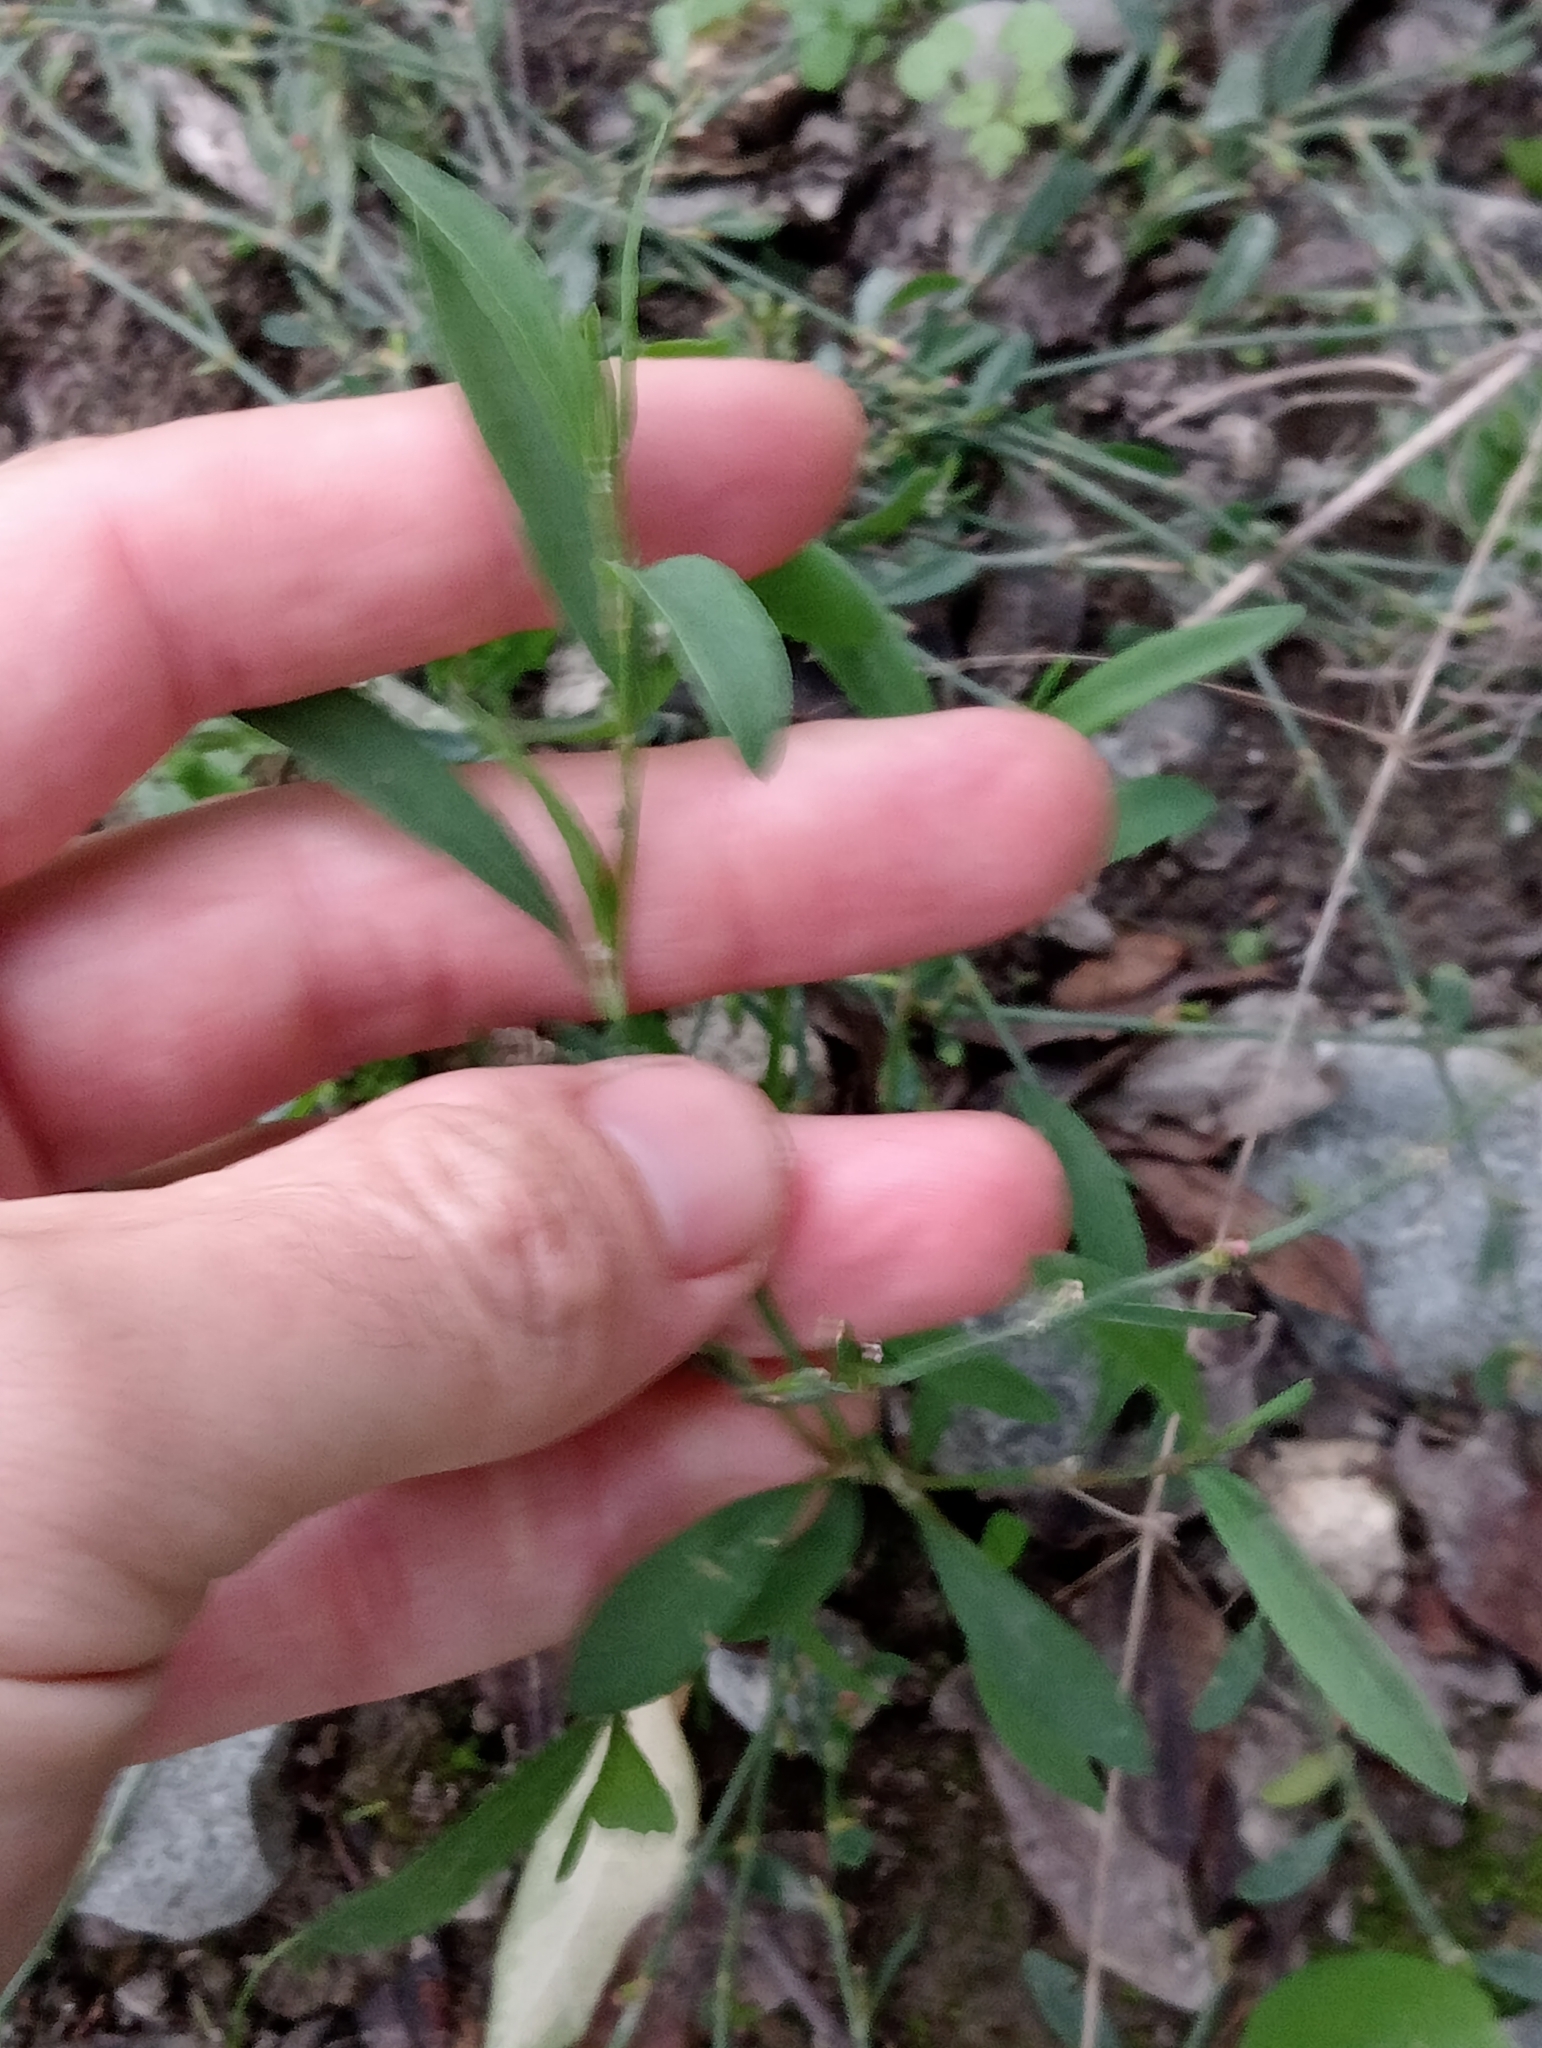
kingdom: Plantae
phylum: Tracheophyta
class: Magnoliopsida
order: Caryophyllales
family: Polygonaceae
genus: Polygonum
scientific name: Polygonum aviculare
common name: Prostrate knotweed
